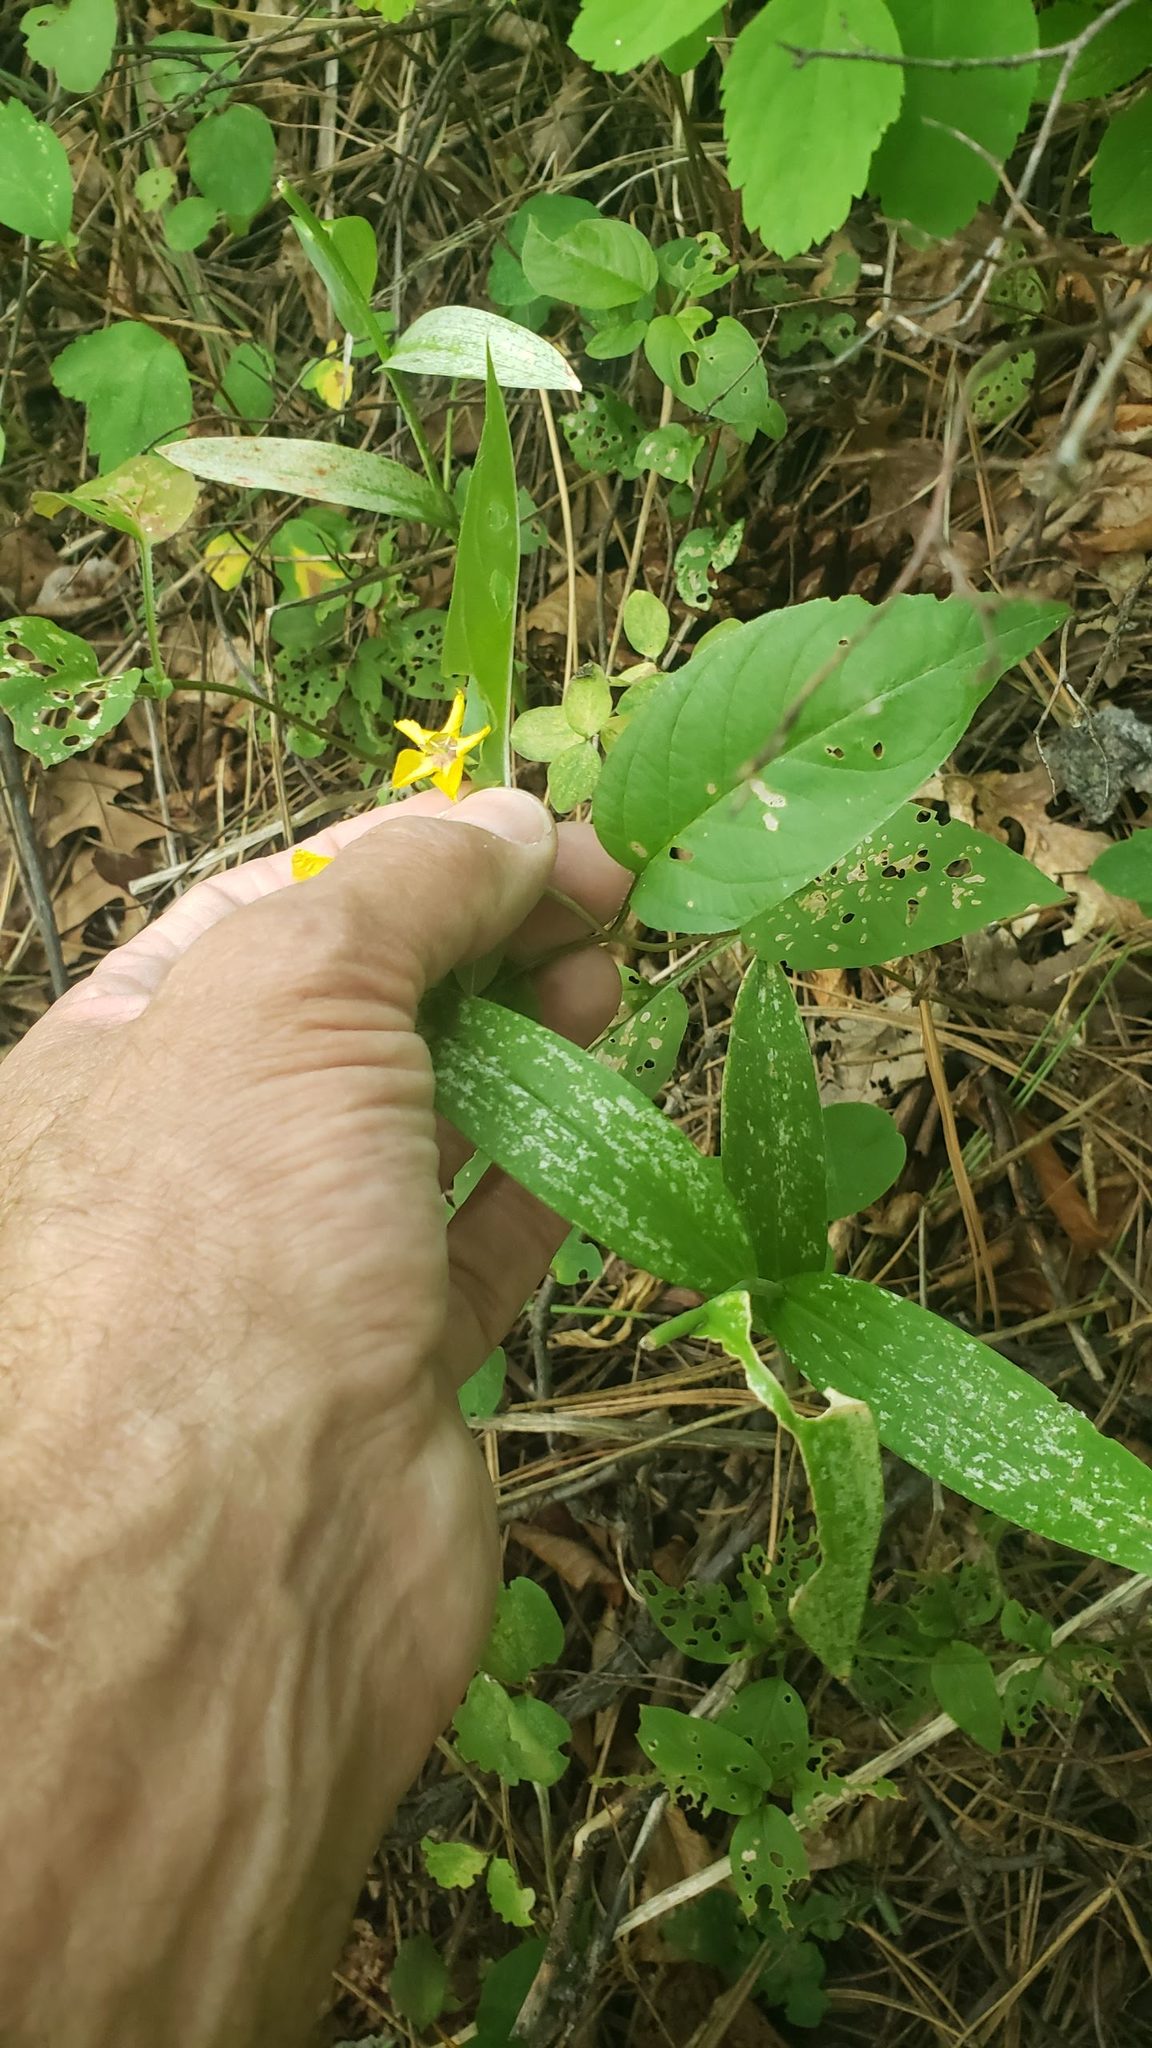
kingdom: Plantae
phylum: Tracheophyta
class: Magnoliopsida
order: Ericales
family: Primulaceae
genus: Lysimachia
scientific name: Lysimachia ciliata
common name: Fringed loosestrife
